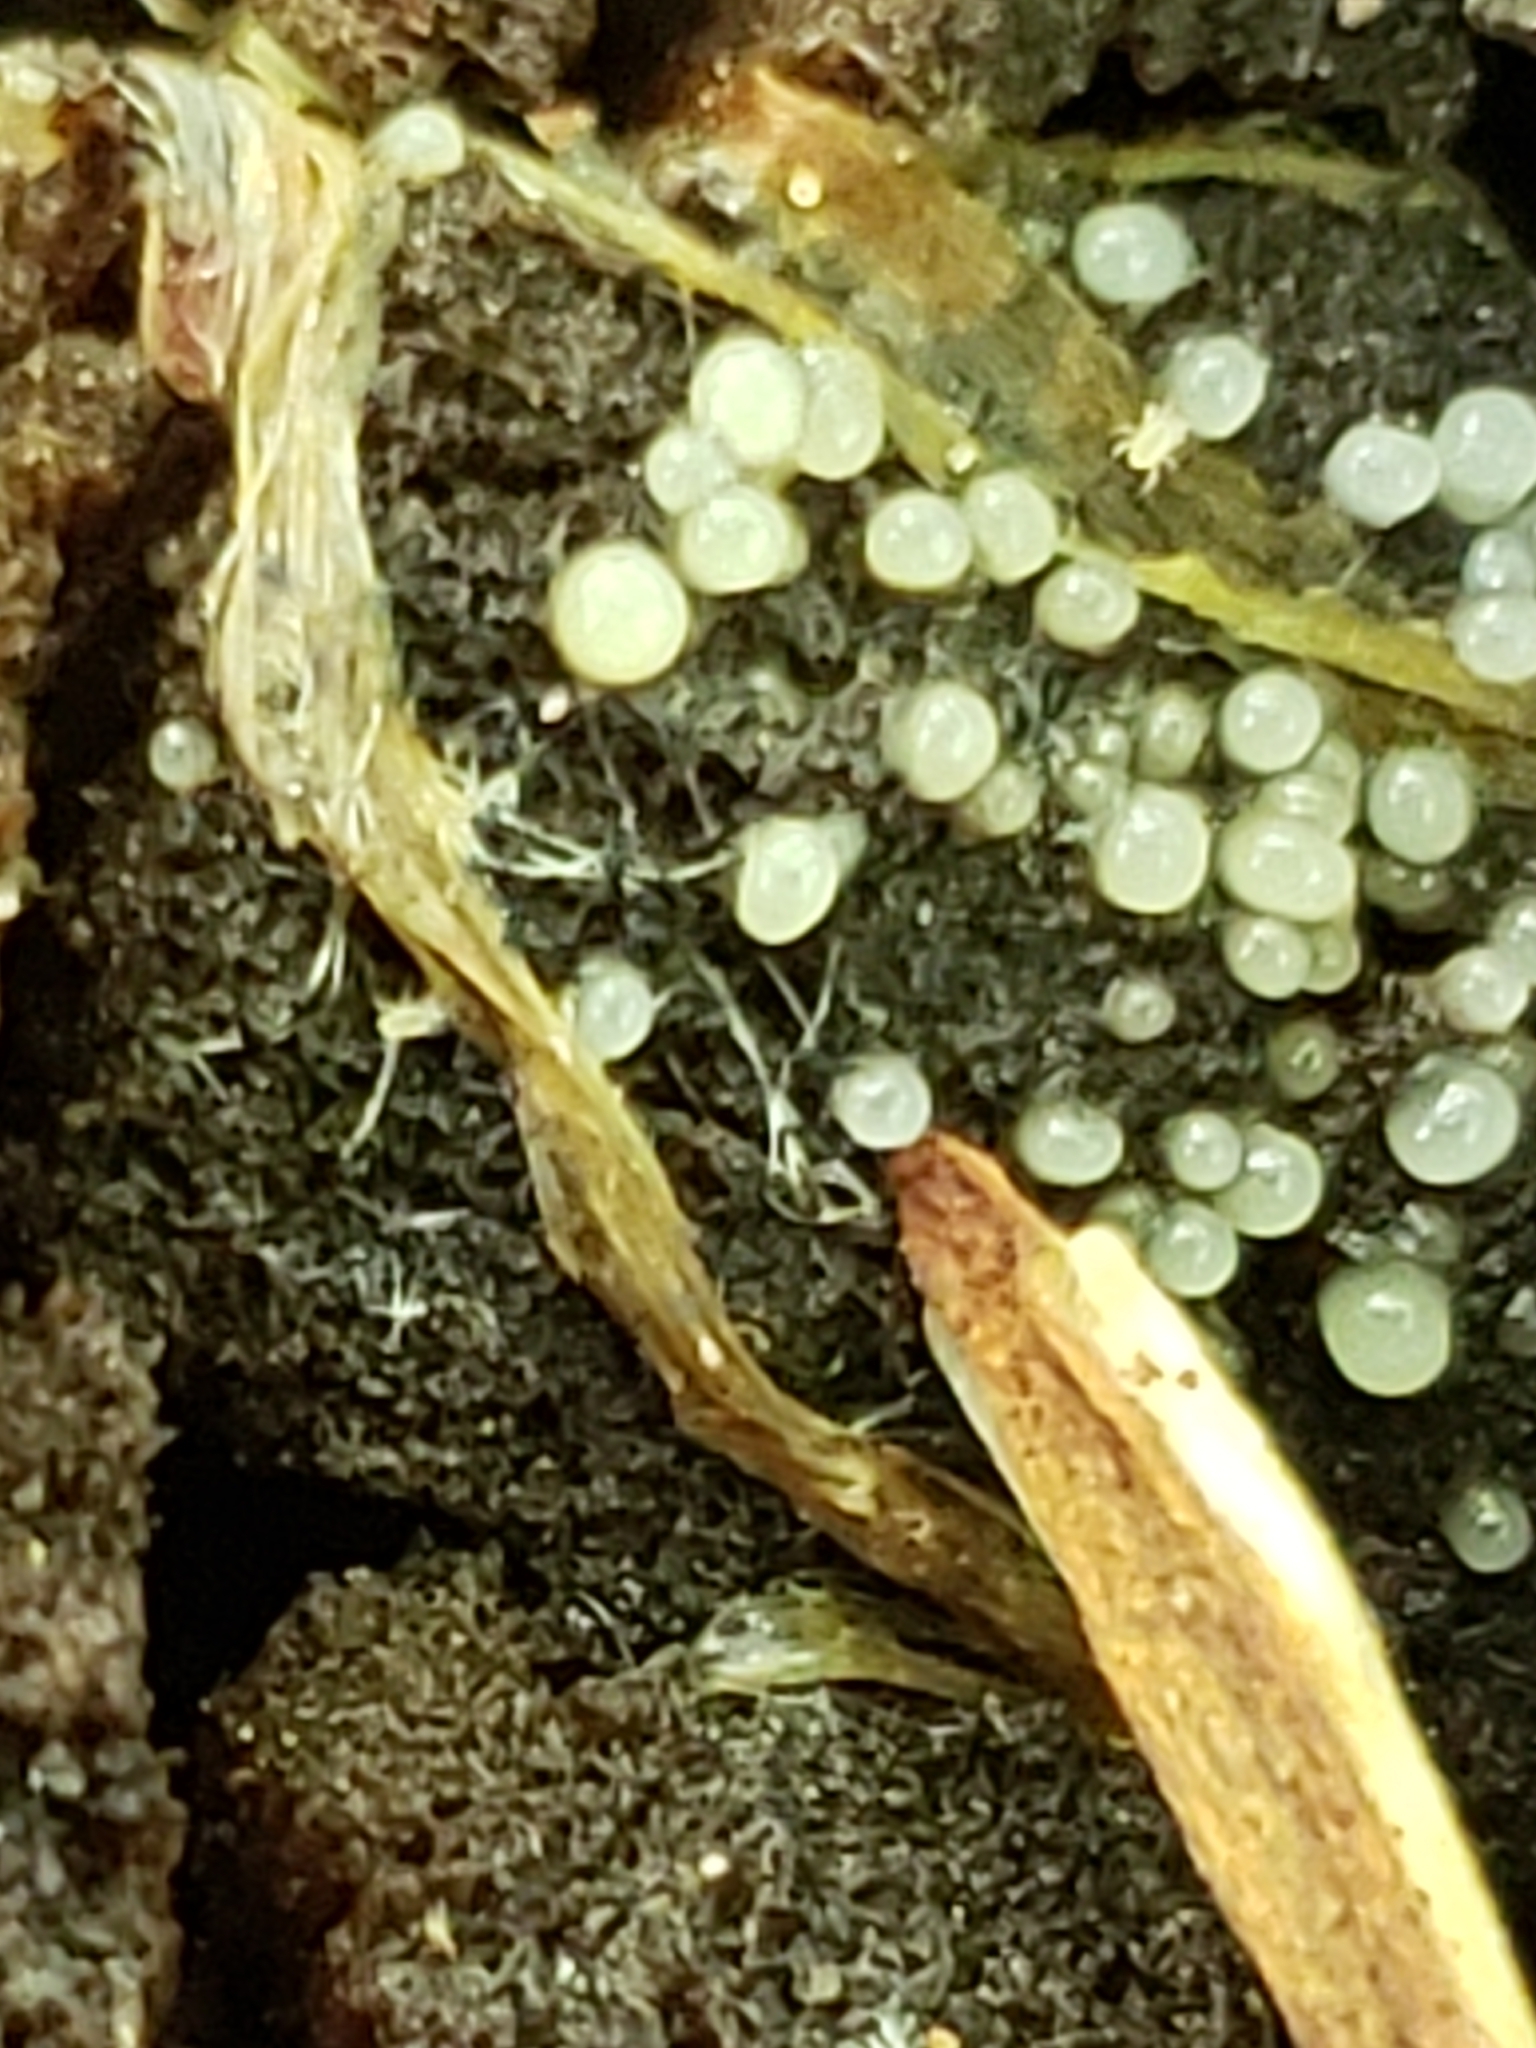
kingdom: Fungi
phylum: Basidiomycota
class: Atractiellomycetes
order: Atractiellales
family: Phleogenaceae
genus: Helicogloea
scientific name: Helicogloea compressa
